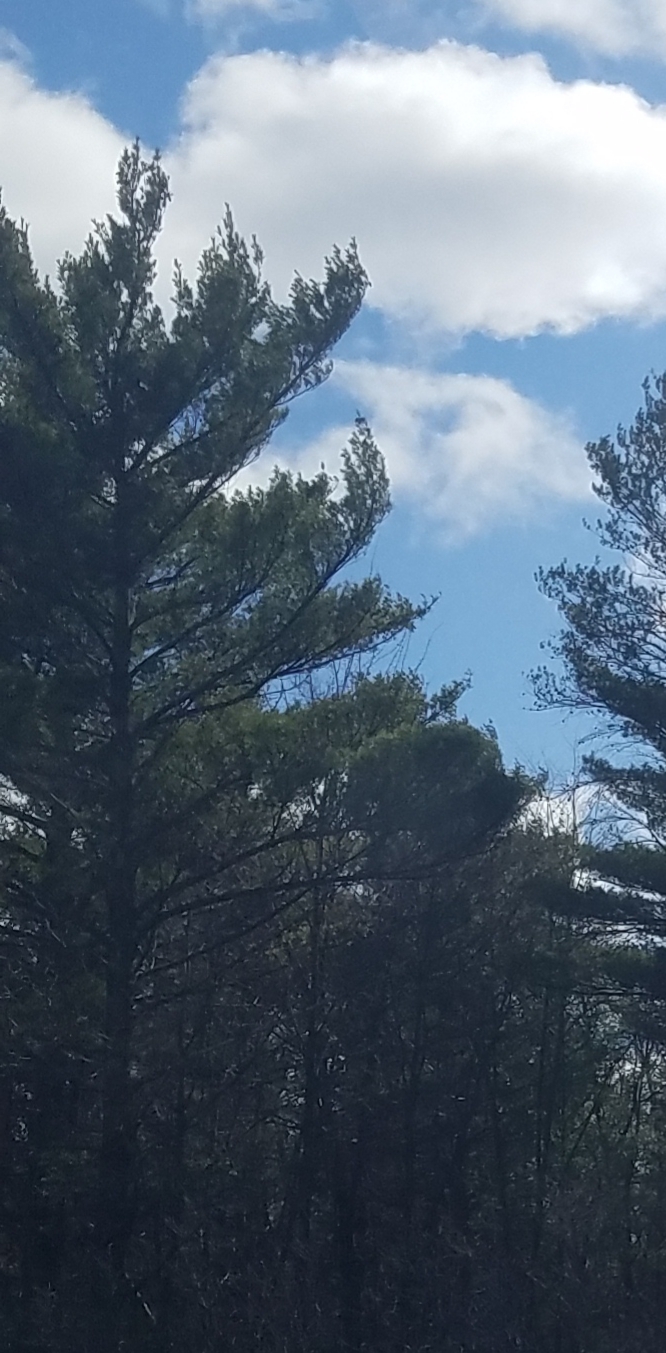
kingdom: Plantae
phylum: Tracheophyta
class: Pinopsida
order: Pinales
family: Pinaceae
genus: Pinus
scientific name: Pinus strobus
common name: Weymouth pine
